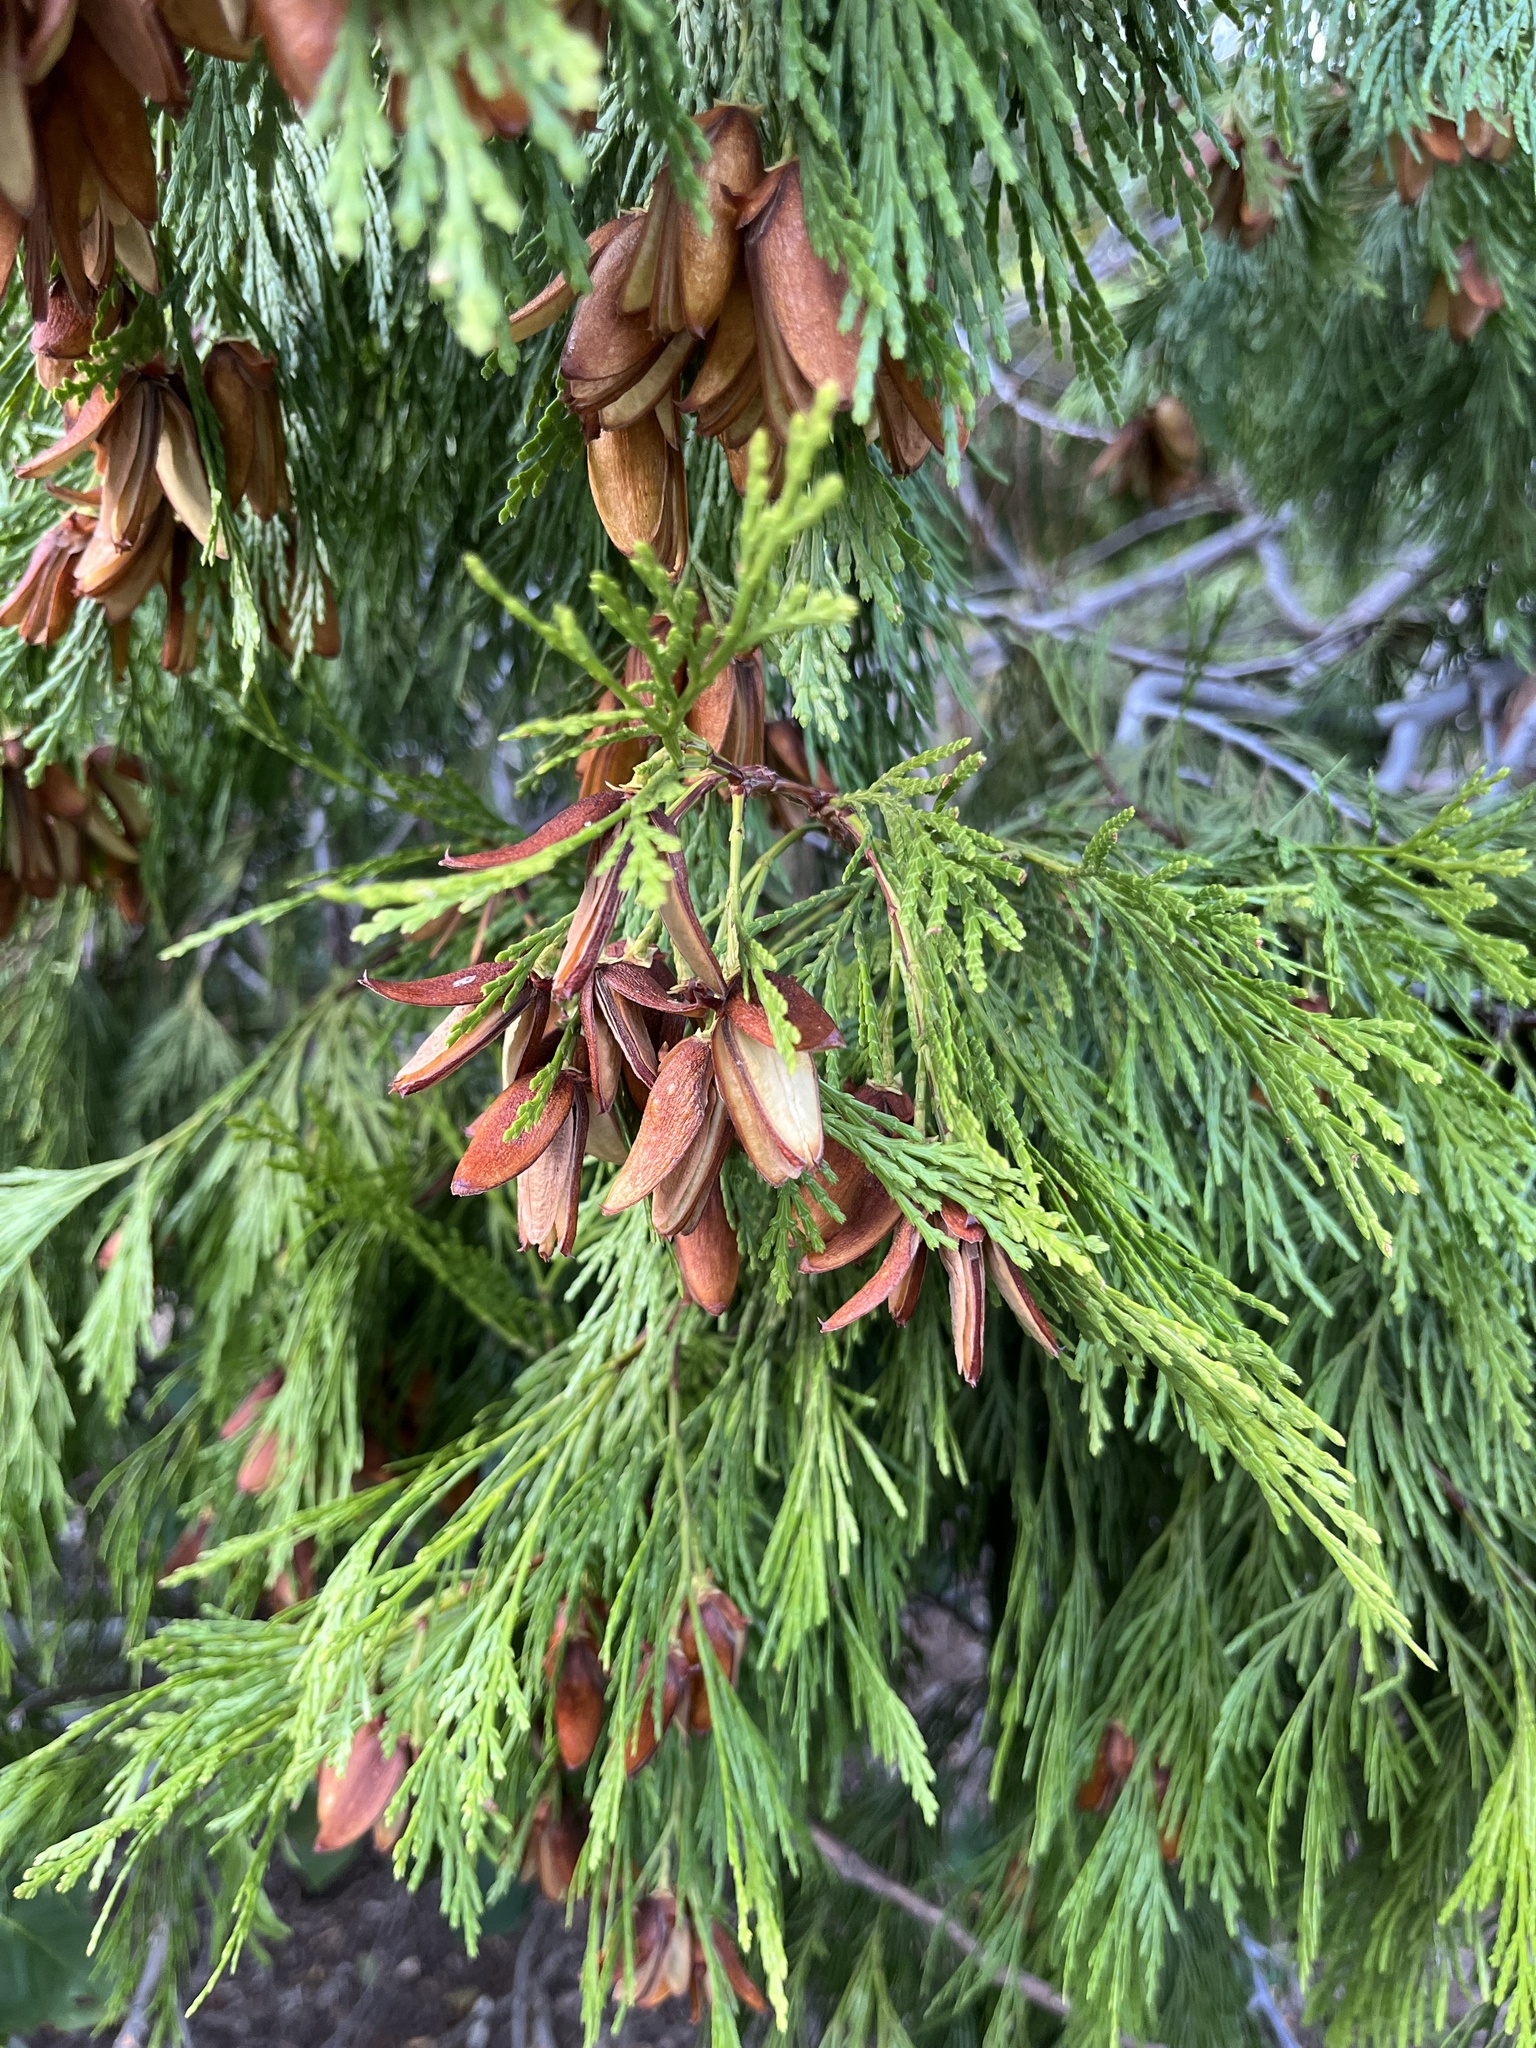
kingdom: Plantae
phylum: Tracheophyta
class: Pinopsida
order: Pinales
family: Cupressaceae
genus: Calocedrus
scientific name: Calocedrus decurrens
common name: Californian incense-cedar
